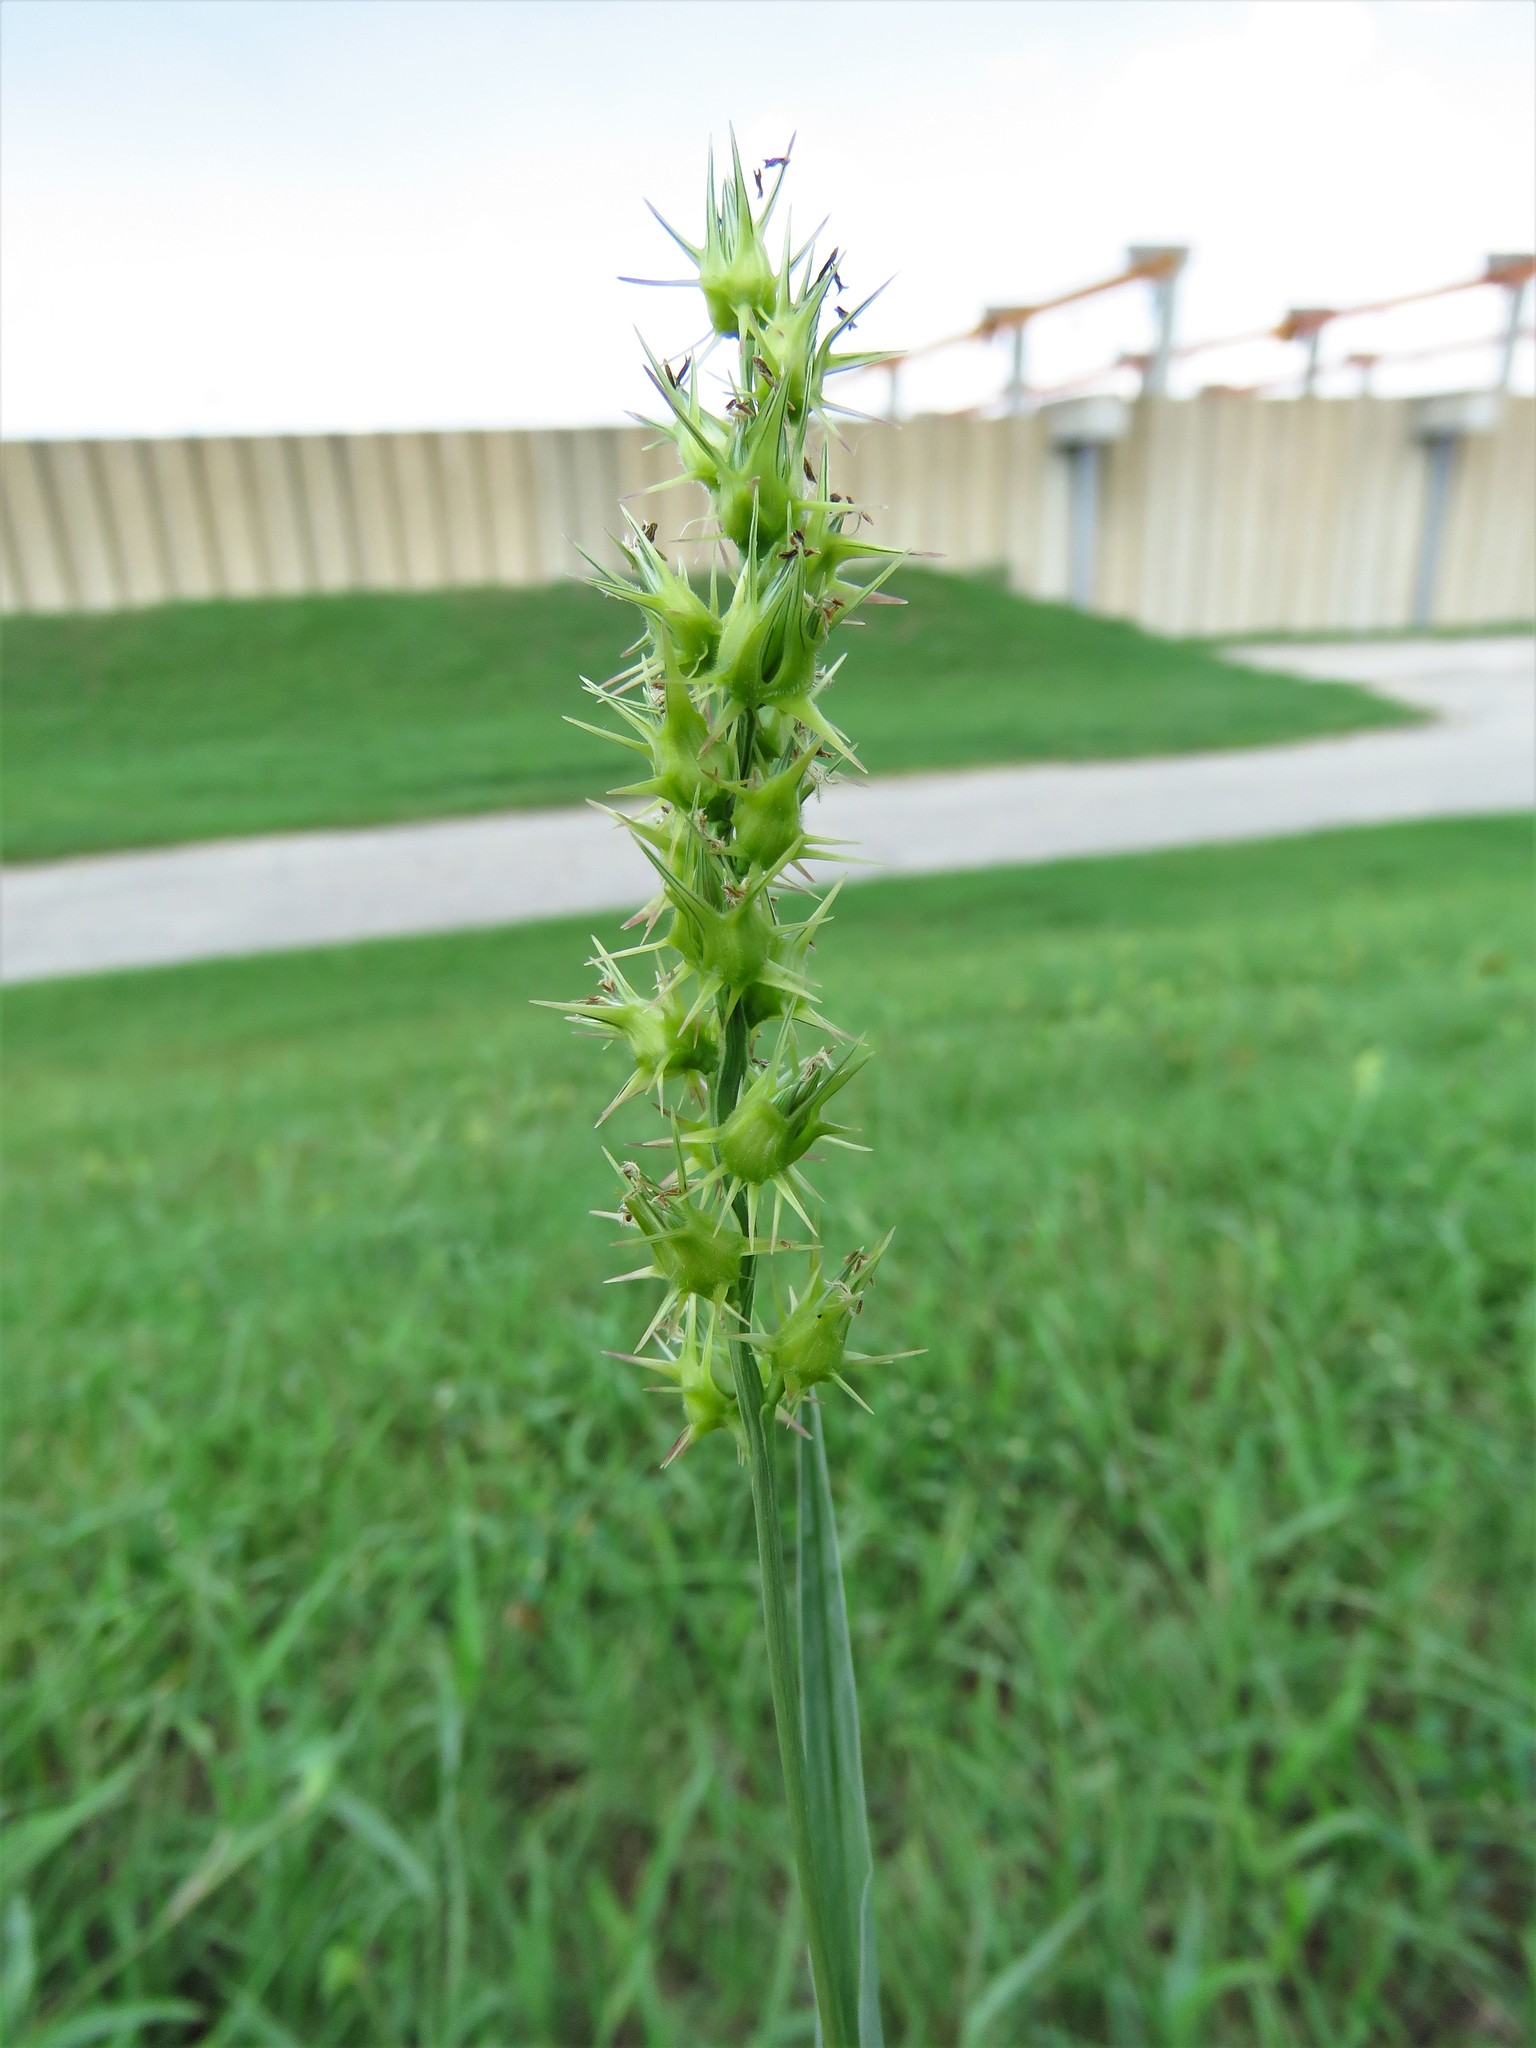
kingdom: Plantae
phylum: Tracheophyta
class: Liliopsida
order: Poales
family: Poaceae
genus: Cenchrus
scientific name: Cenchrus spinifex
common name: Coast sandbur
